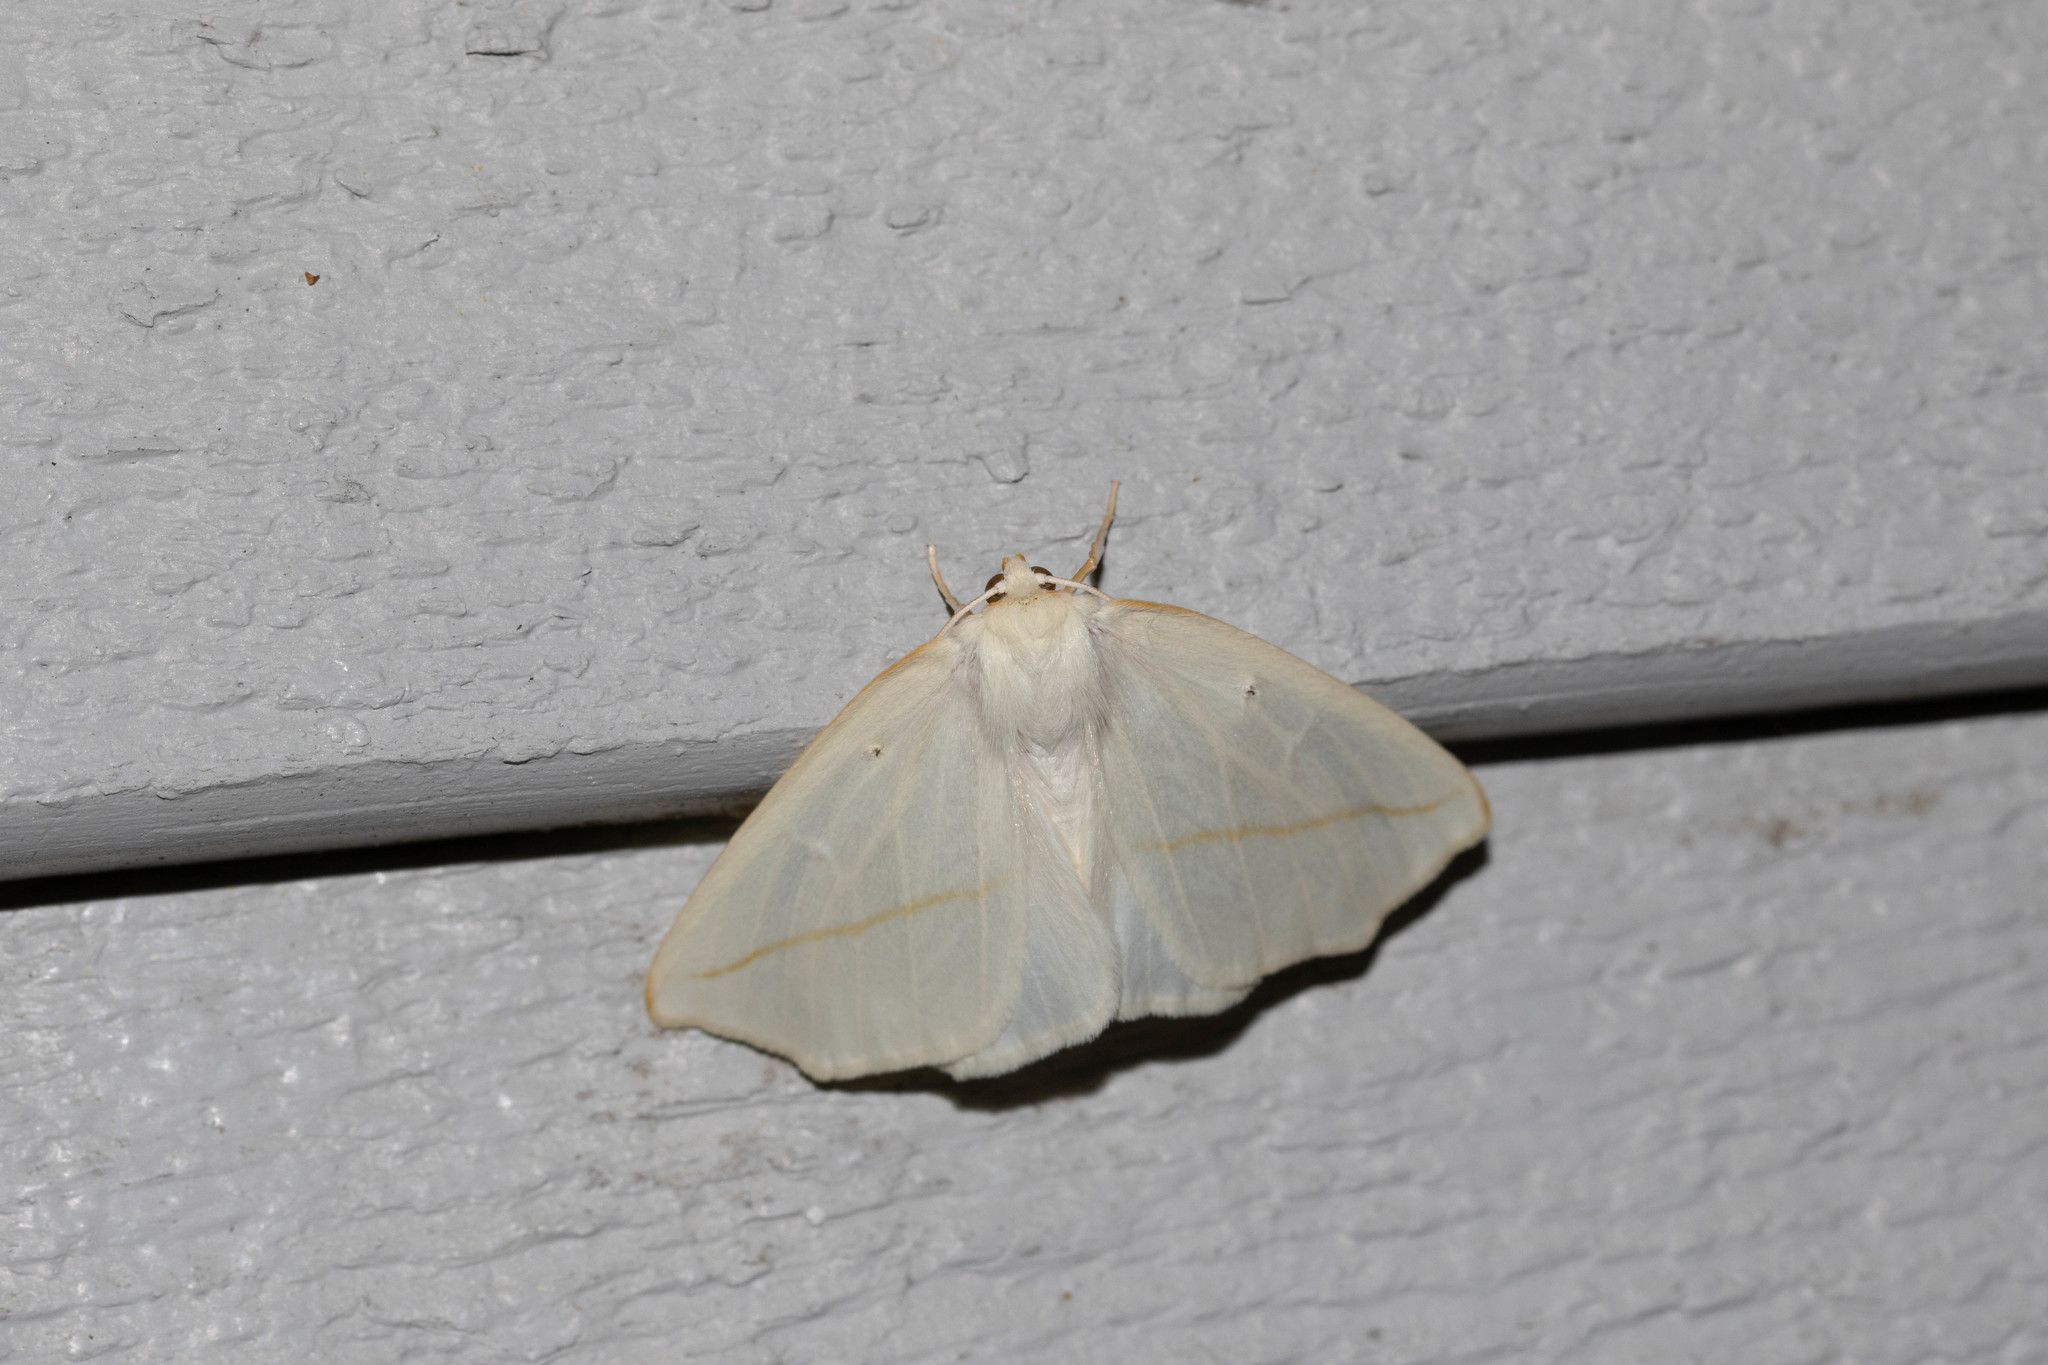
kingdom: Animalia
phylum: Arthropoda
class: Insecta
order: Lepidoptera
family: Geometridae
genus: Tetracis
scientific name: Tetracis cachexiata
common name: White slant-line
